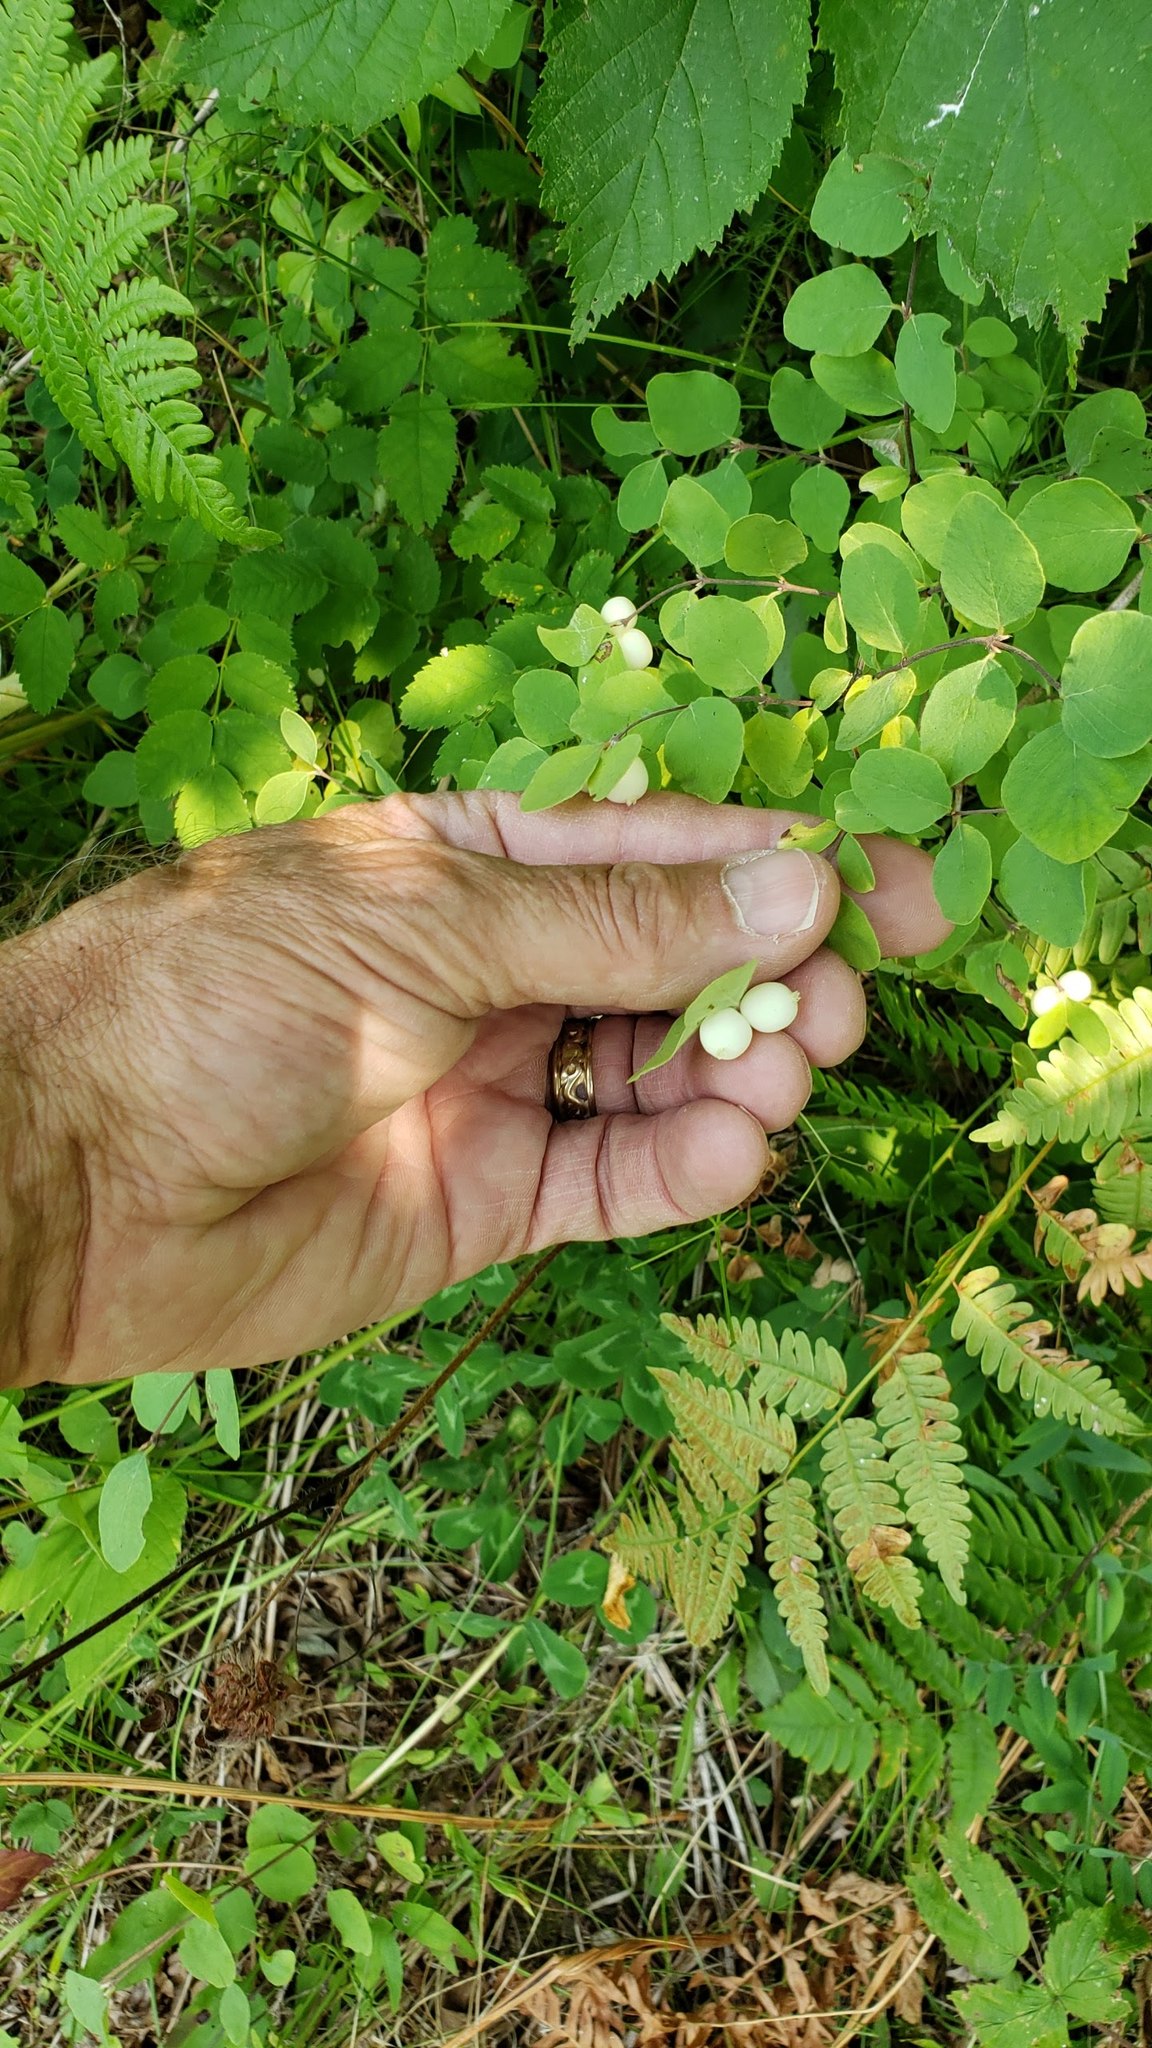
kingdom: Plantae
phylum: Tracheophyta
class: Magnoliopsida
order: Dipsacales
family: Caprifoliaceae
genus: Symphoricarpos
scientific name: Symphoricarpos albus
